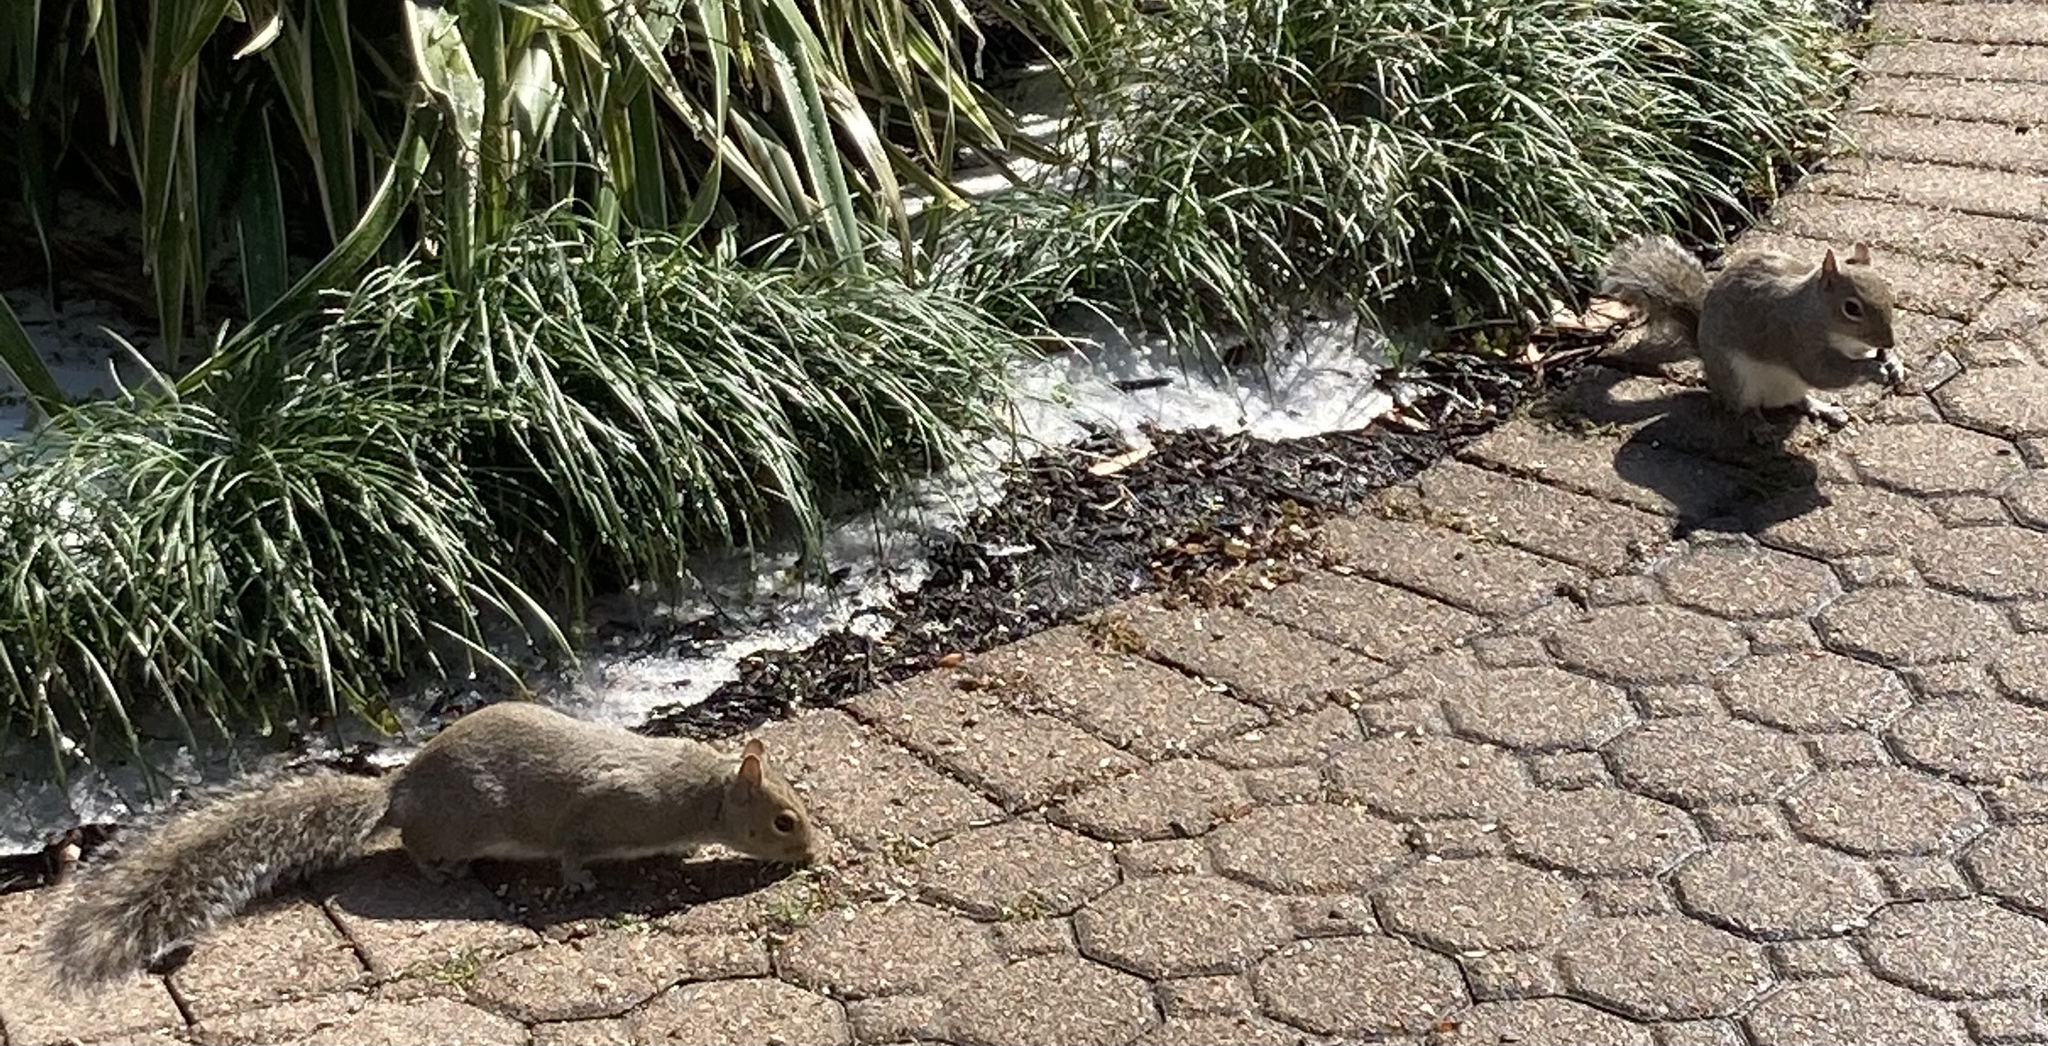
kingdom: Animalia
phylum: Chordata
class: Mammalia
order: Rodentia
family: Sciuridae
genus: Sciurus
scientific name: Sciurus carolinensis
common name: Eastern gray squirrel
